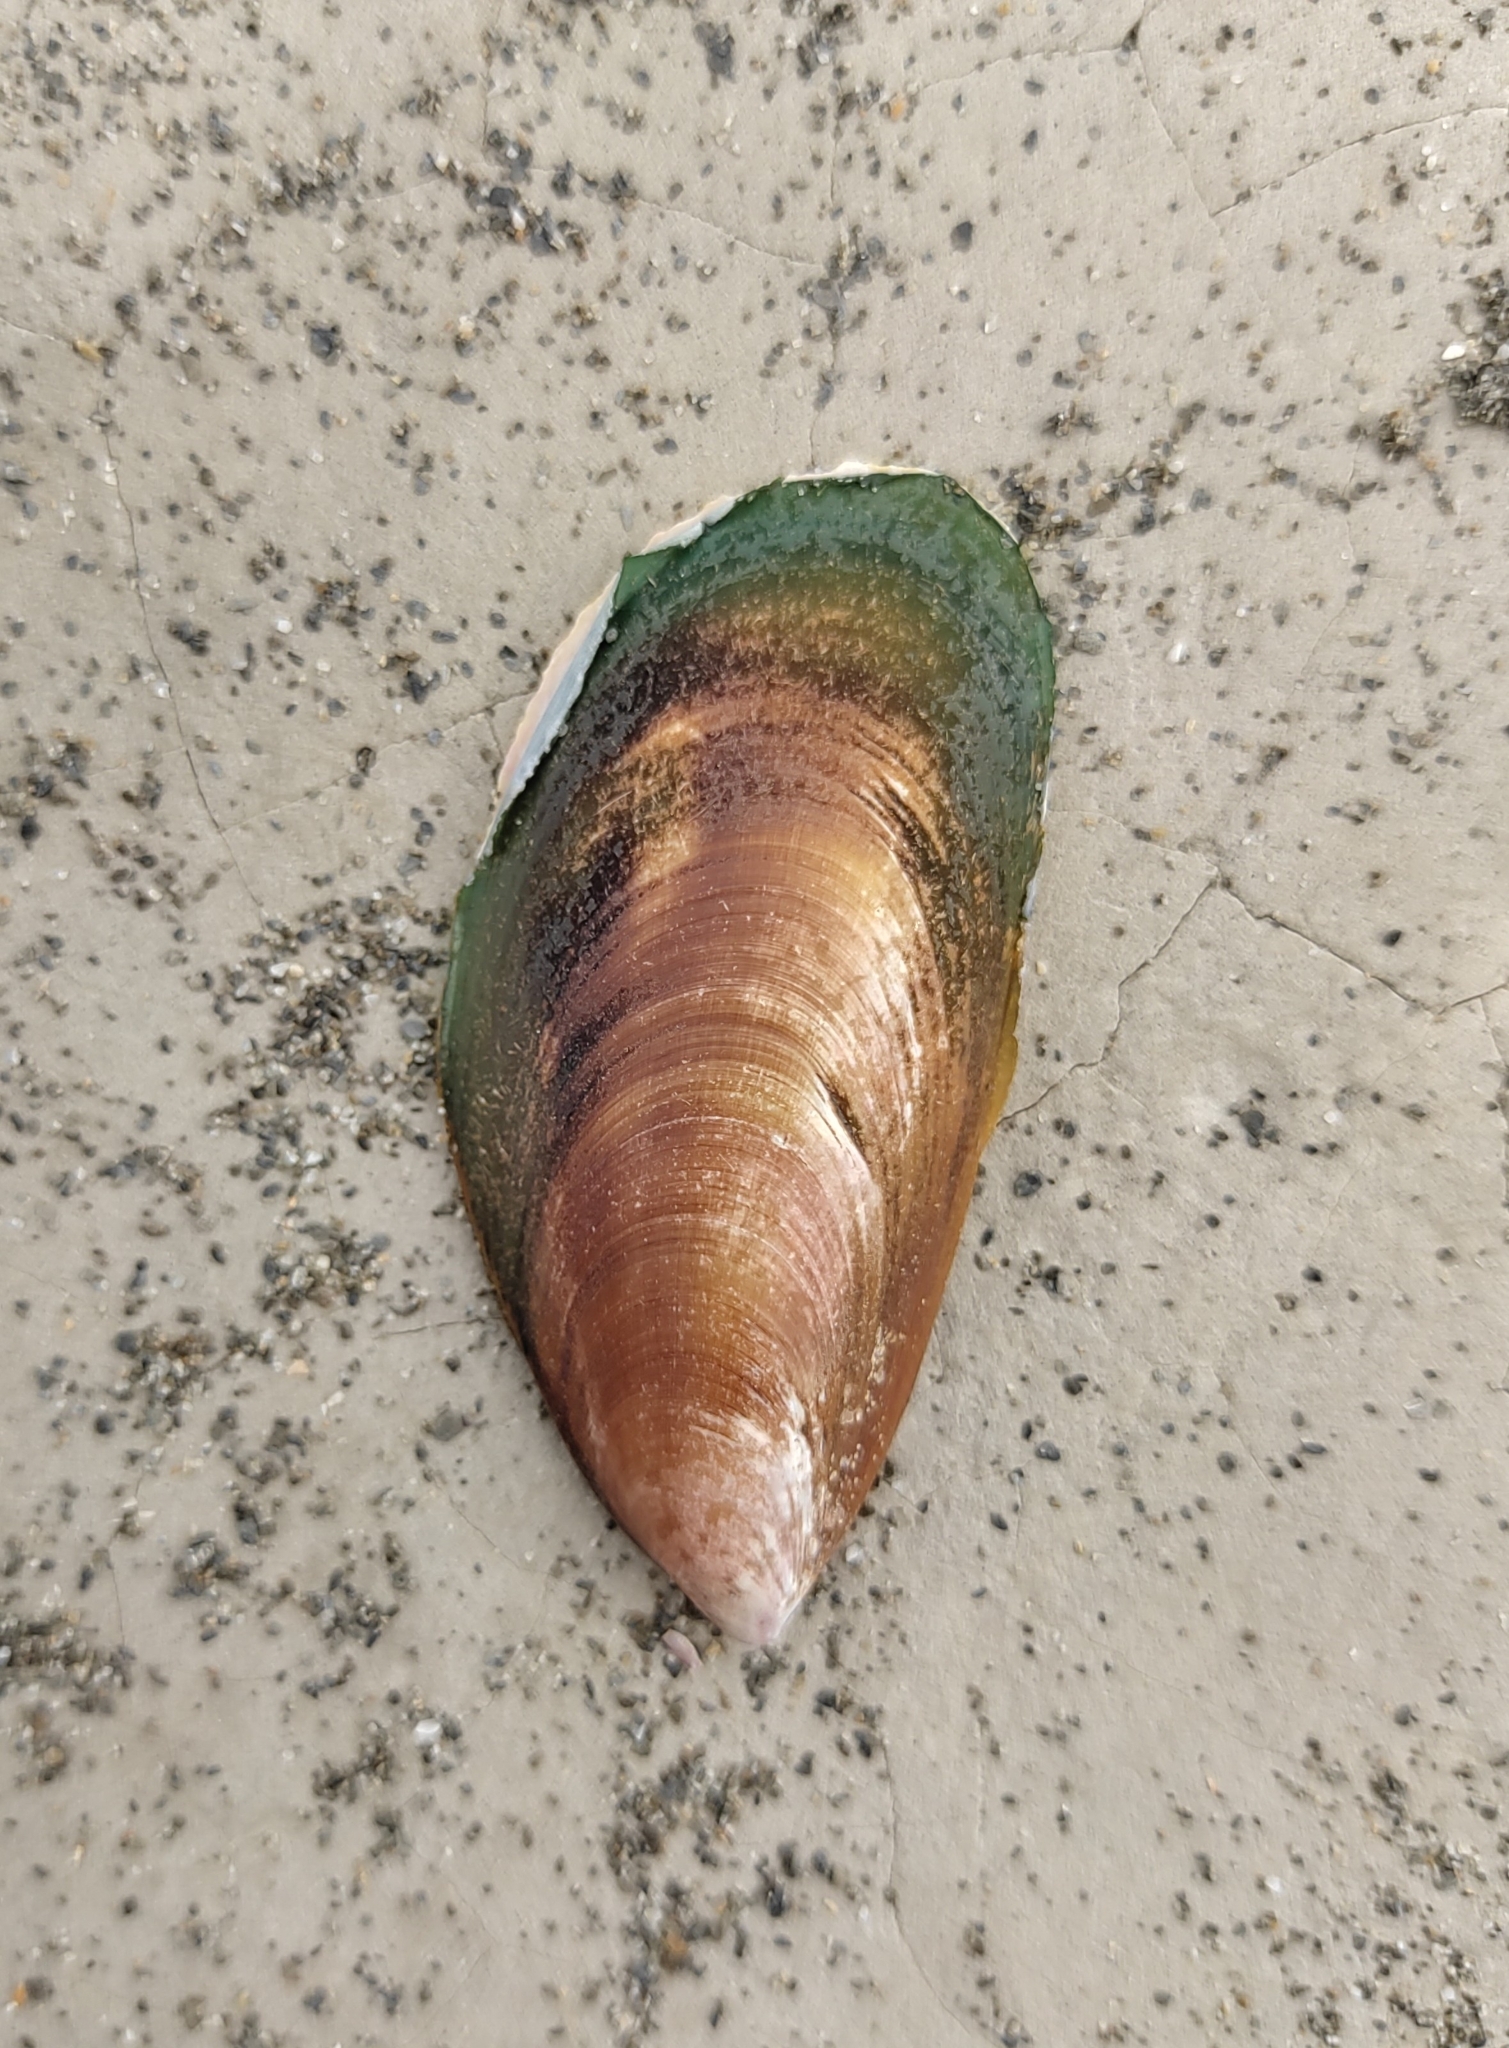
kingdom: Animalia
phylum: Mollusca
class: Bivalvia
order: Mytilida
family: Mytilidae
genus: Perna
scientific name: Perna viridis
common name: Green mussel
